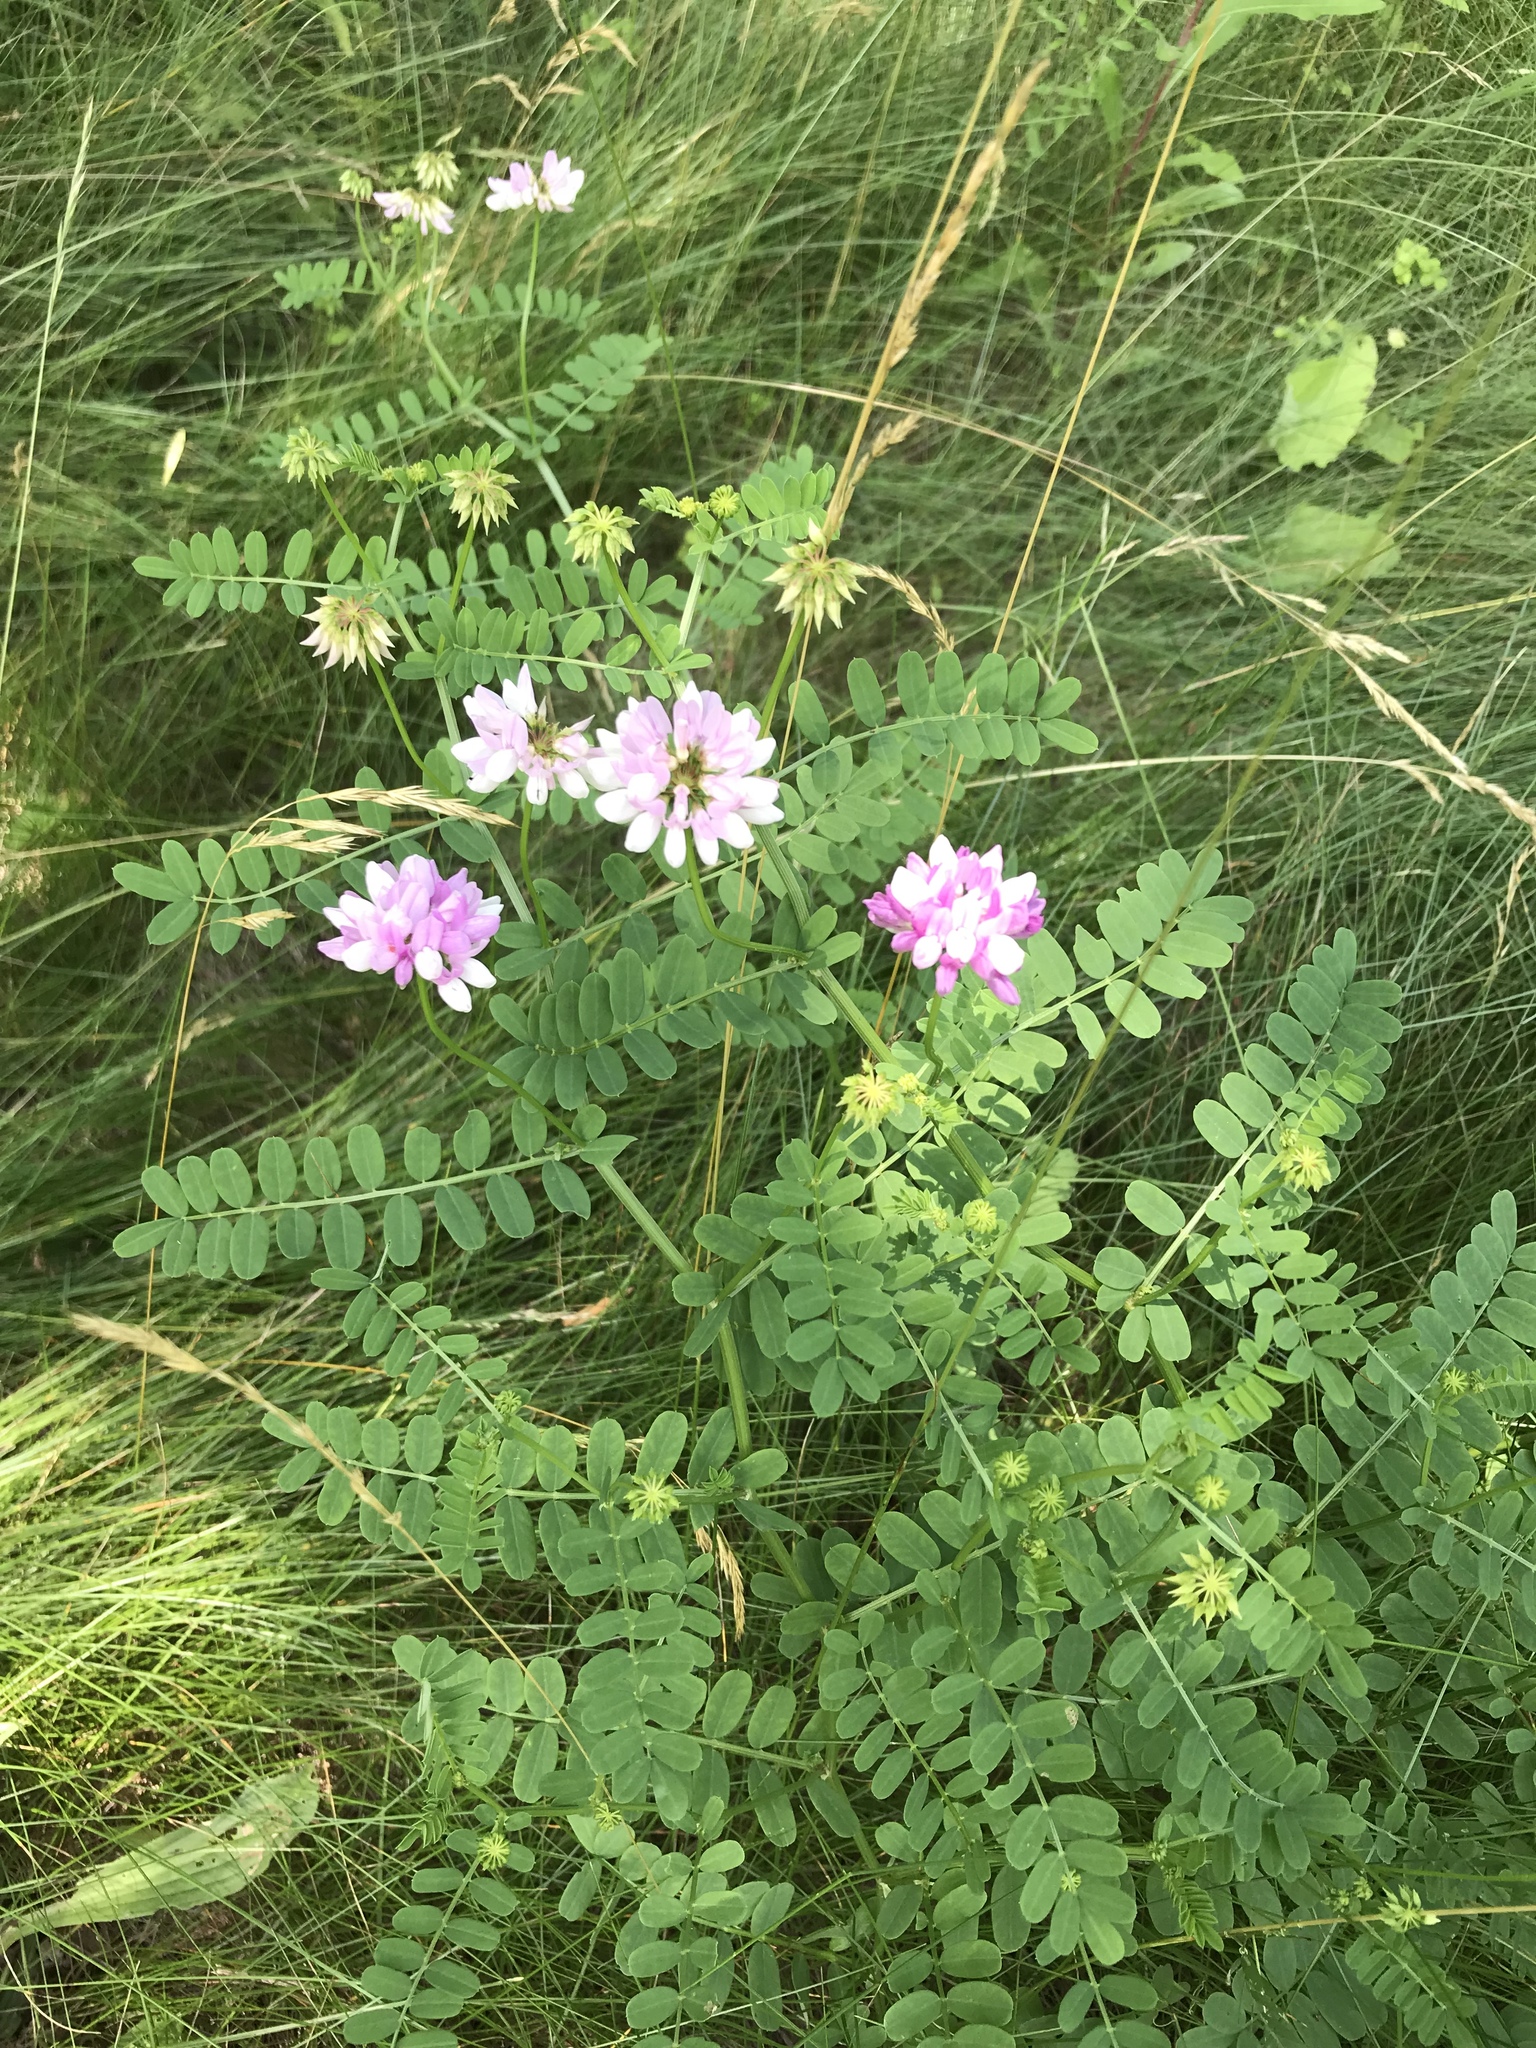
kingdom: Plantae
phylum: Tracheophyta
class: Magnoliopsida
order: Fabales
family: Fabaceae
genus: Coronilla
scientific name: Coronilla varia
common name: Crownvetch
